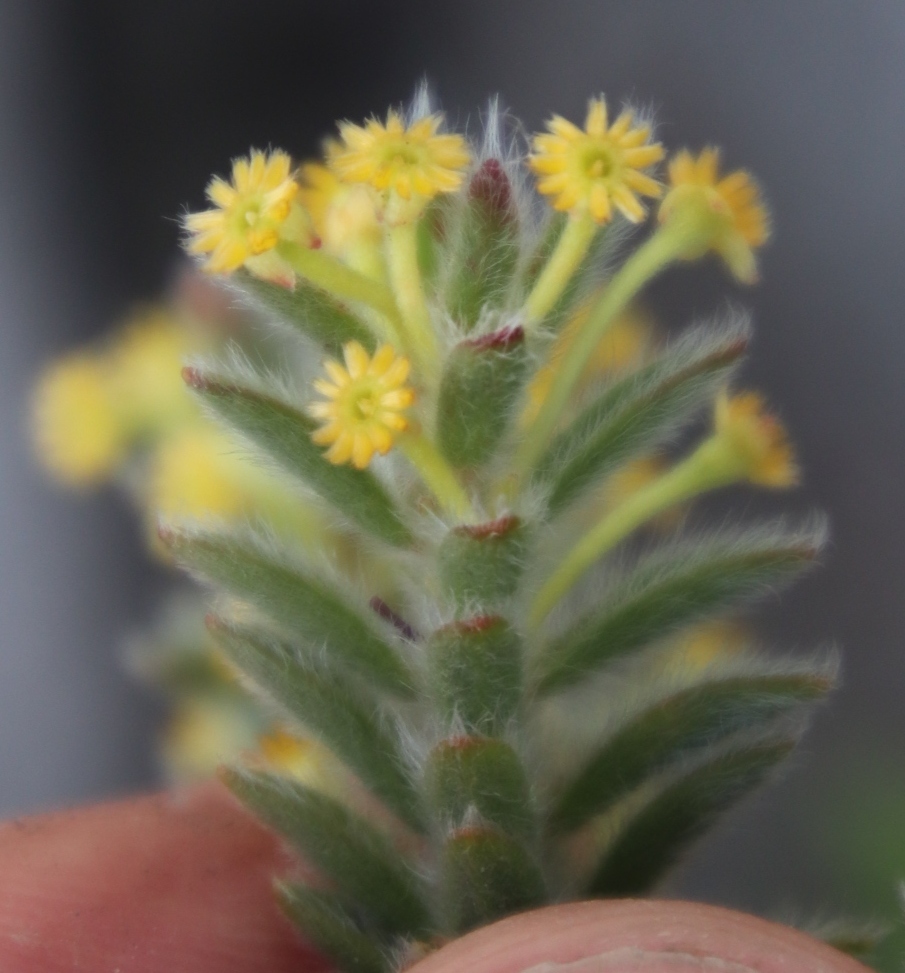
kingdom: Plantae
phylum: Tracheophyta
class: Magnoliopsida
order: Malvales
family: Thymelaeaceae
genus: Struthiola
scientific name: Struthiola tomentosa
